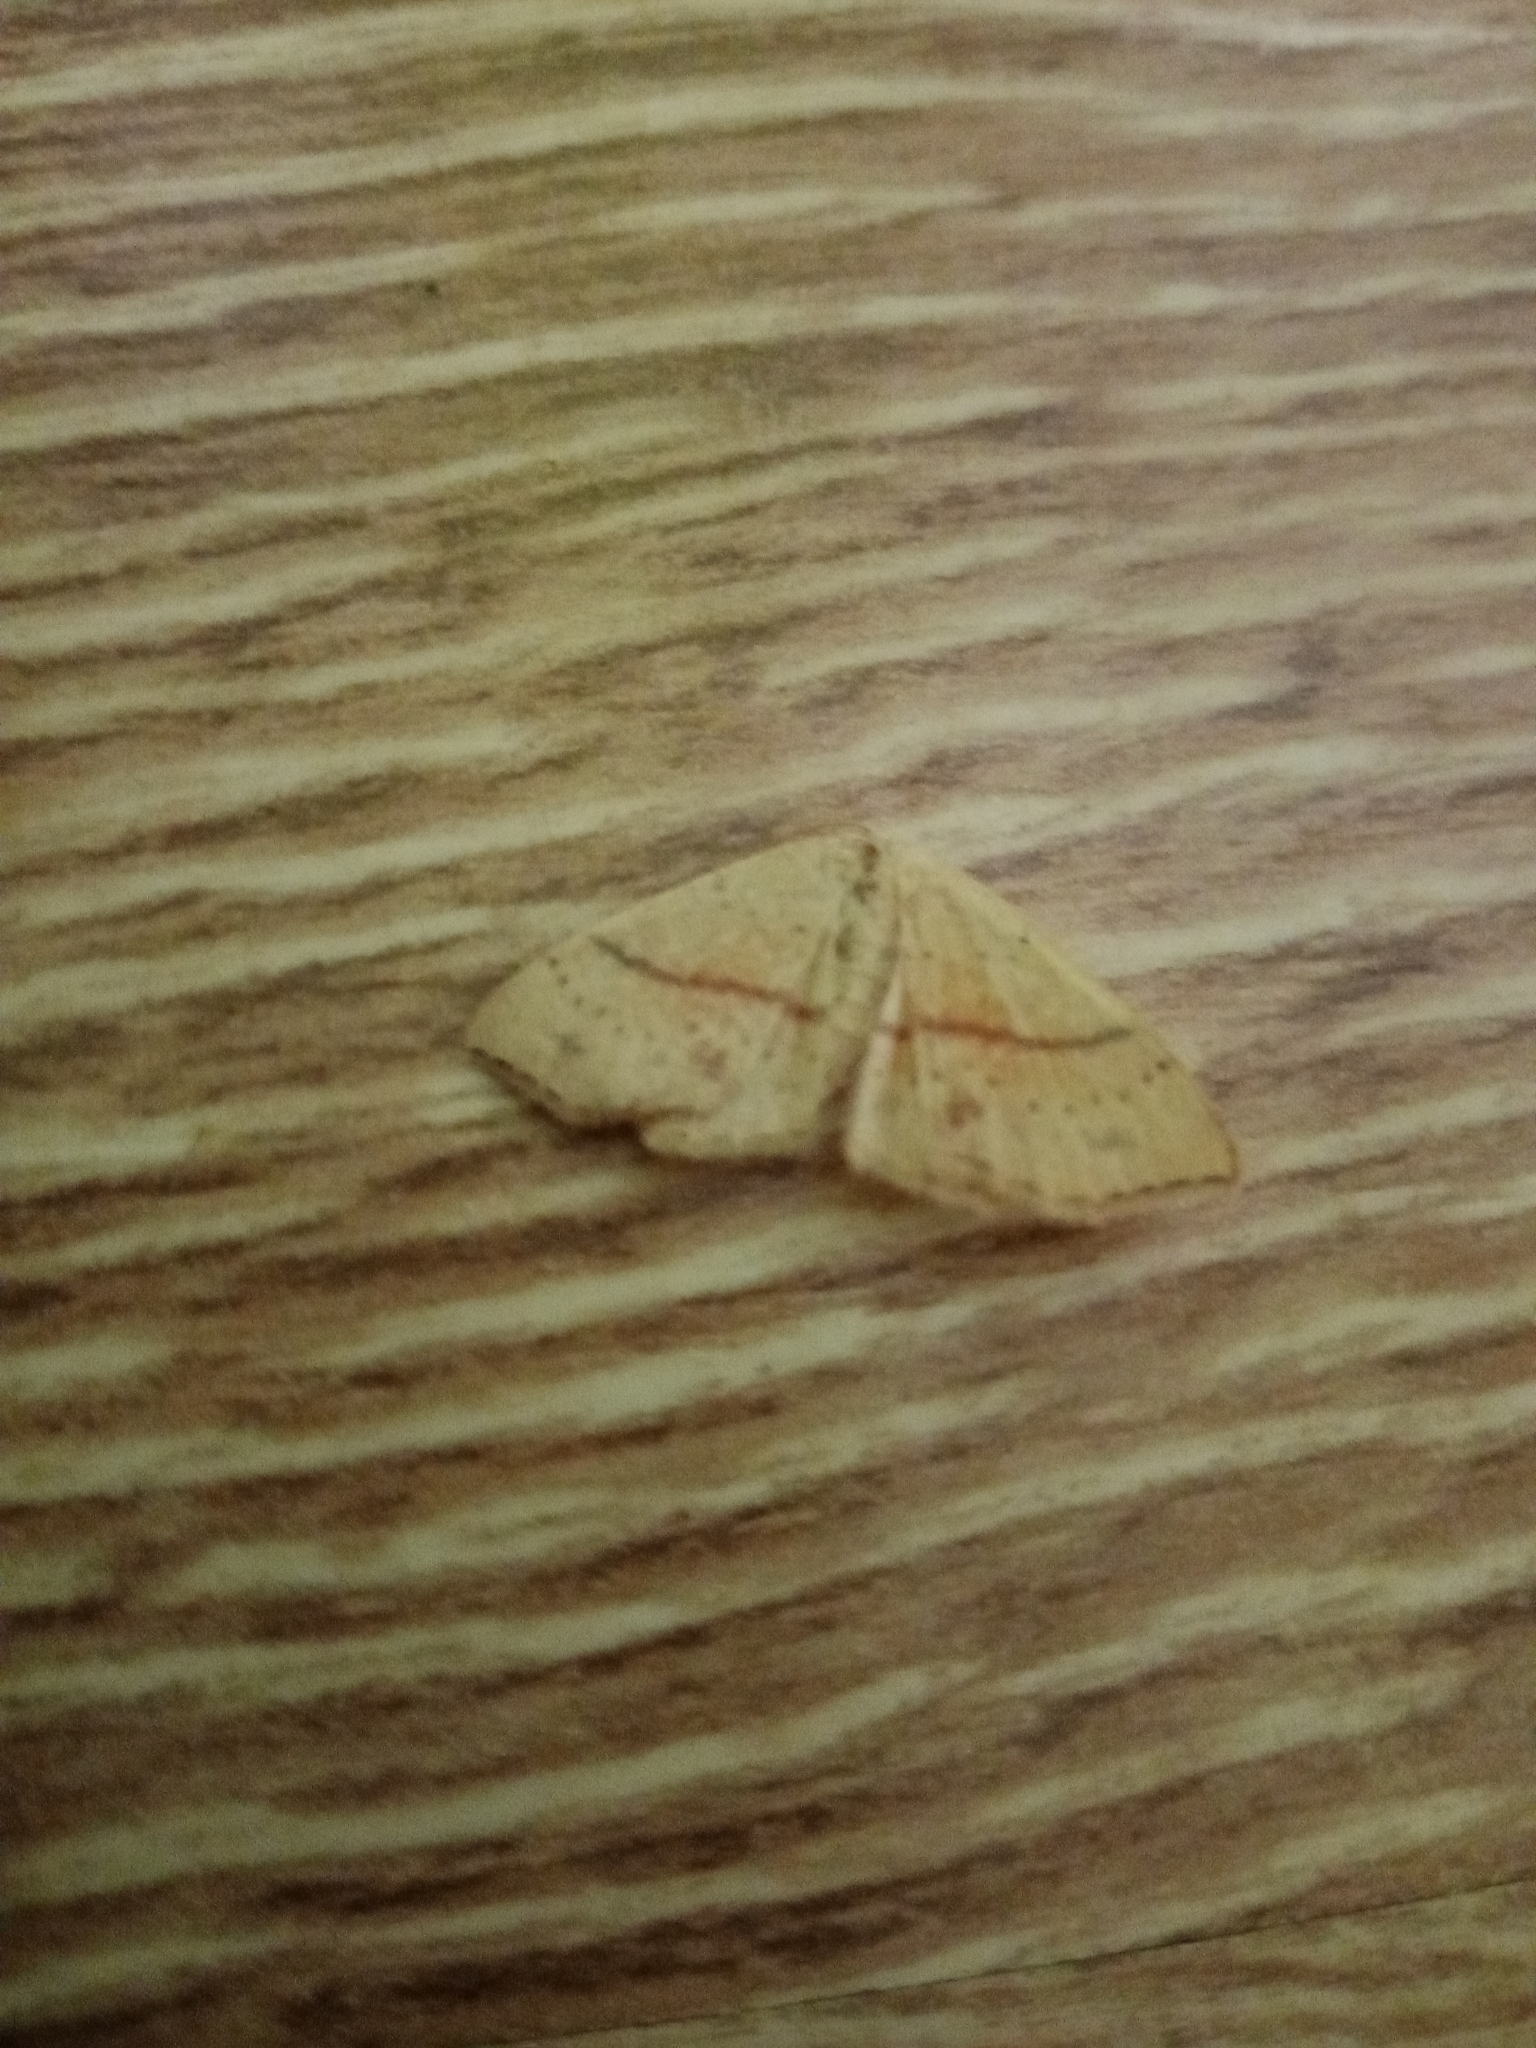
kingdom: Animalia
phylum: Arthropoda
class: Insecta
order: Lepidoptera
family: Geometridae
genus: Cyclophora
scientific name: Cyclophora punctaria
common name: Maiden's blush
